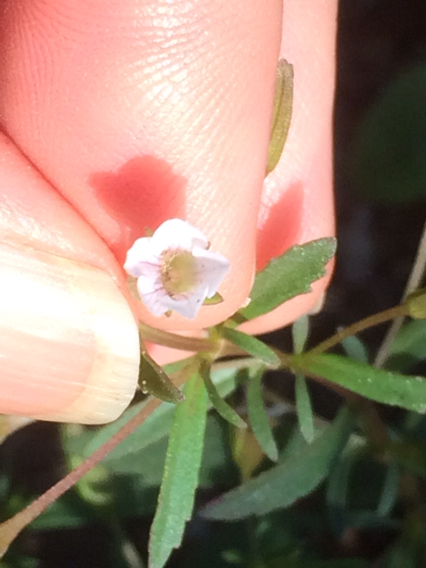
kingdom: Plantae
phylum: Tracheophyta
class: Magnoliopsida
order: Lamiales
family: Plantaginaceae
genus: Mecardonia
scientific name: Mecardonia acuminata
